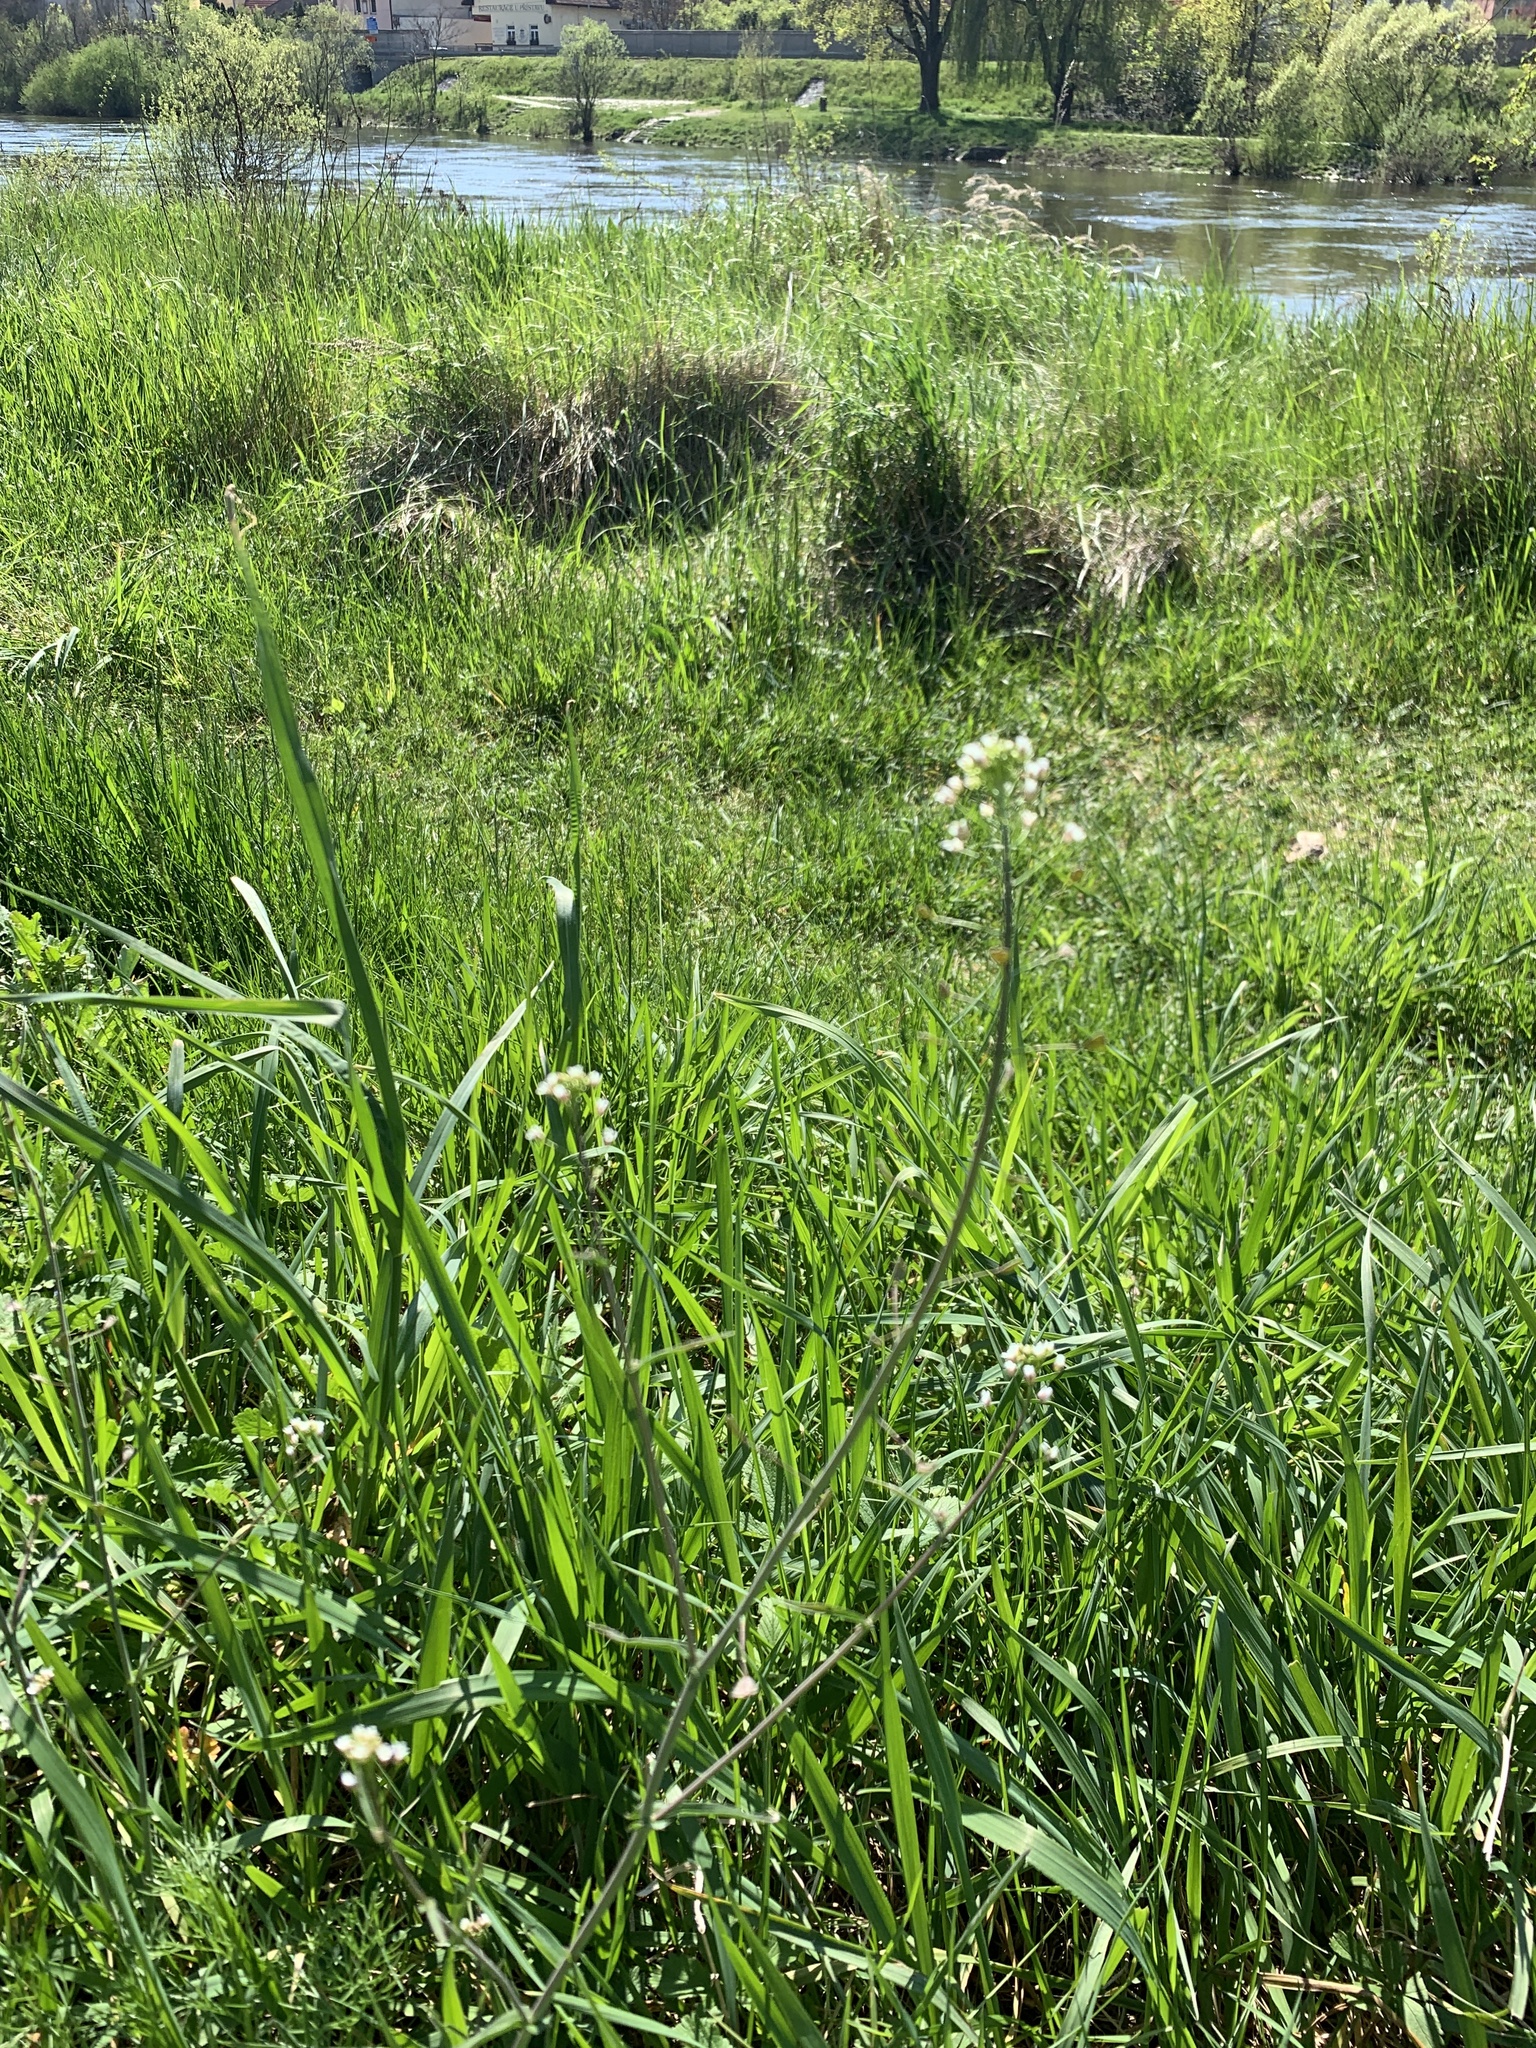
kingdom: Plantae
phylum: Tracheophyta
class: Magnoliopsida
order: Brassicales
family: Brassicaceae
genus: Capsella
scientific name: Capsella bursa-pastoris
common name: Shepherd's purse
